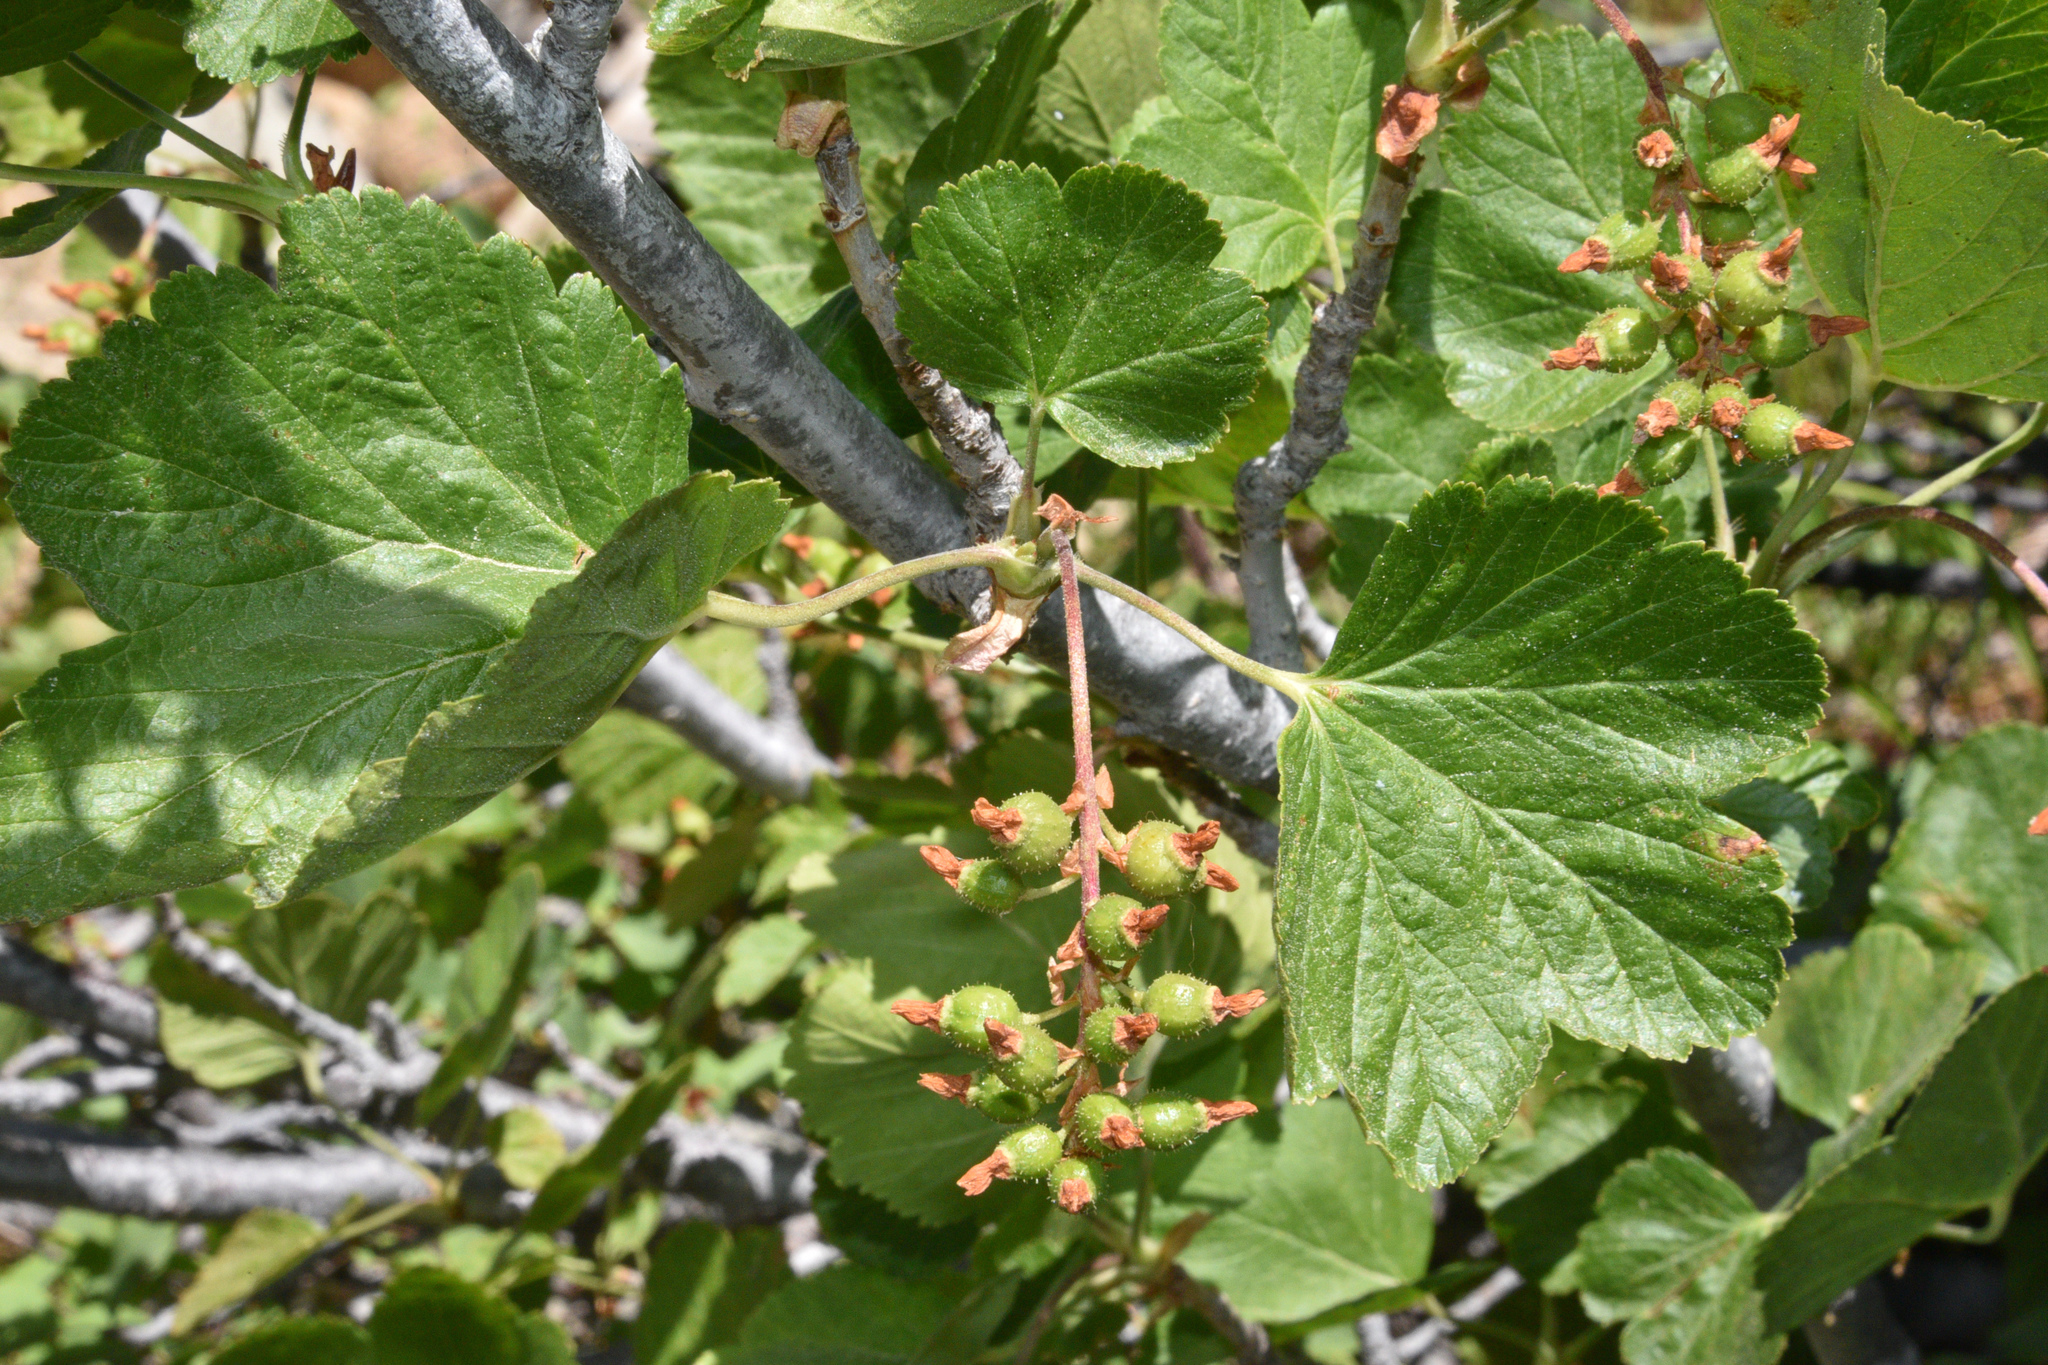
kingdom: Plantae
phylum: Tracheophyta
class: Magnoliopsida
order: Saxifragales
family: Grossulariaceae
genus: Ribes
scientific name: Ribes nevadense
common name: Mountain pink currant
